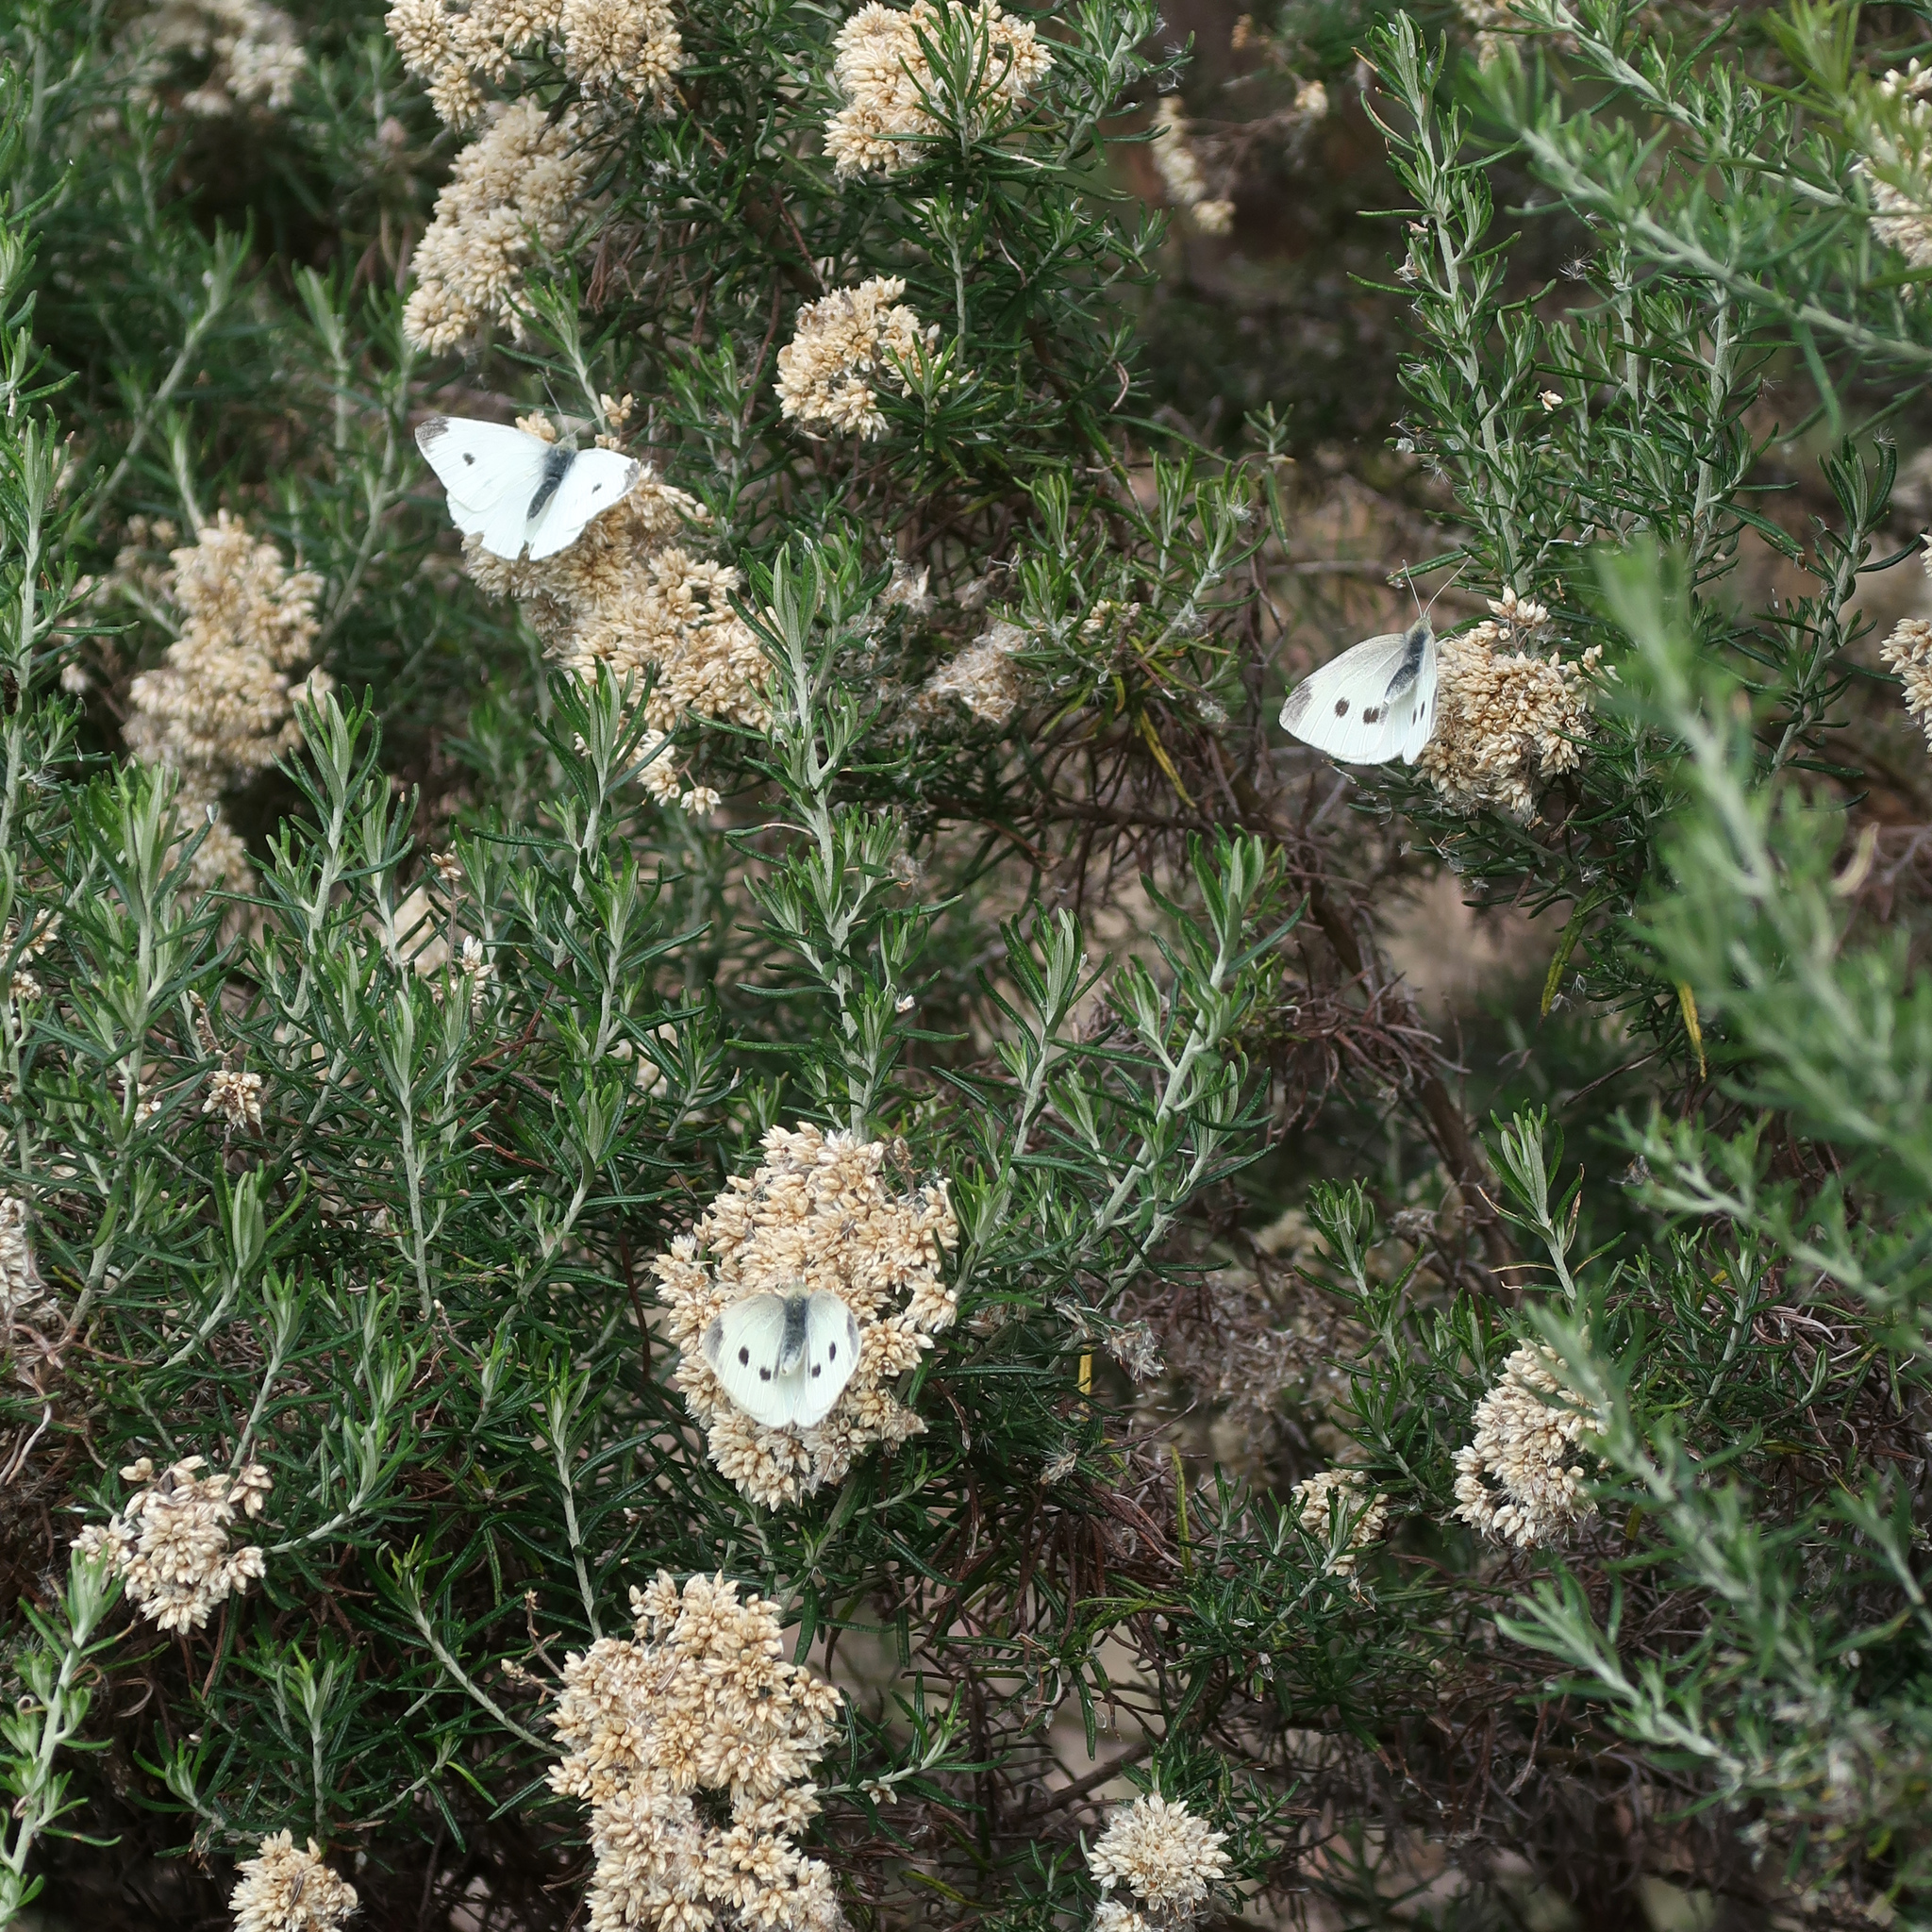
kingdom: Animalia
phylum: Arthropoda
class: Insecta
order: Lepidoptera
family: Pieridae
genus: Pieris
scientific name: Pieris rapae
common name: Small white
